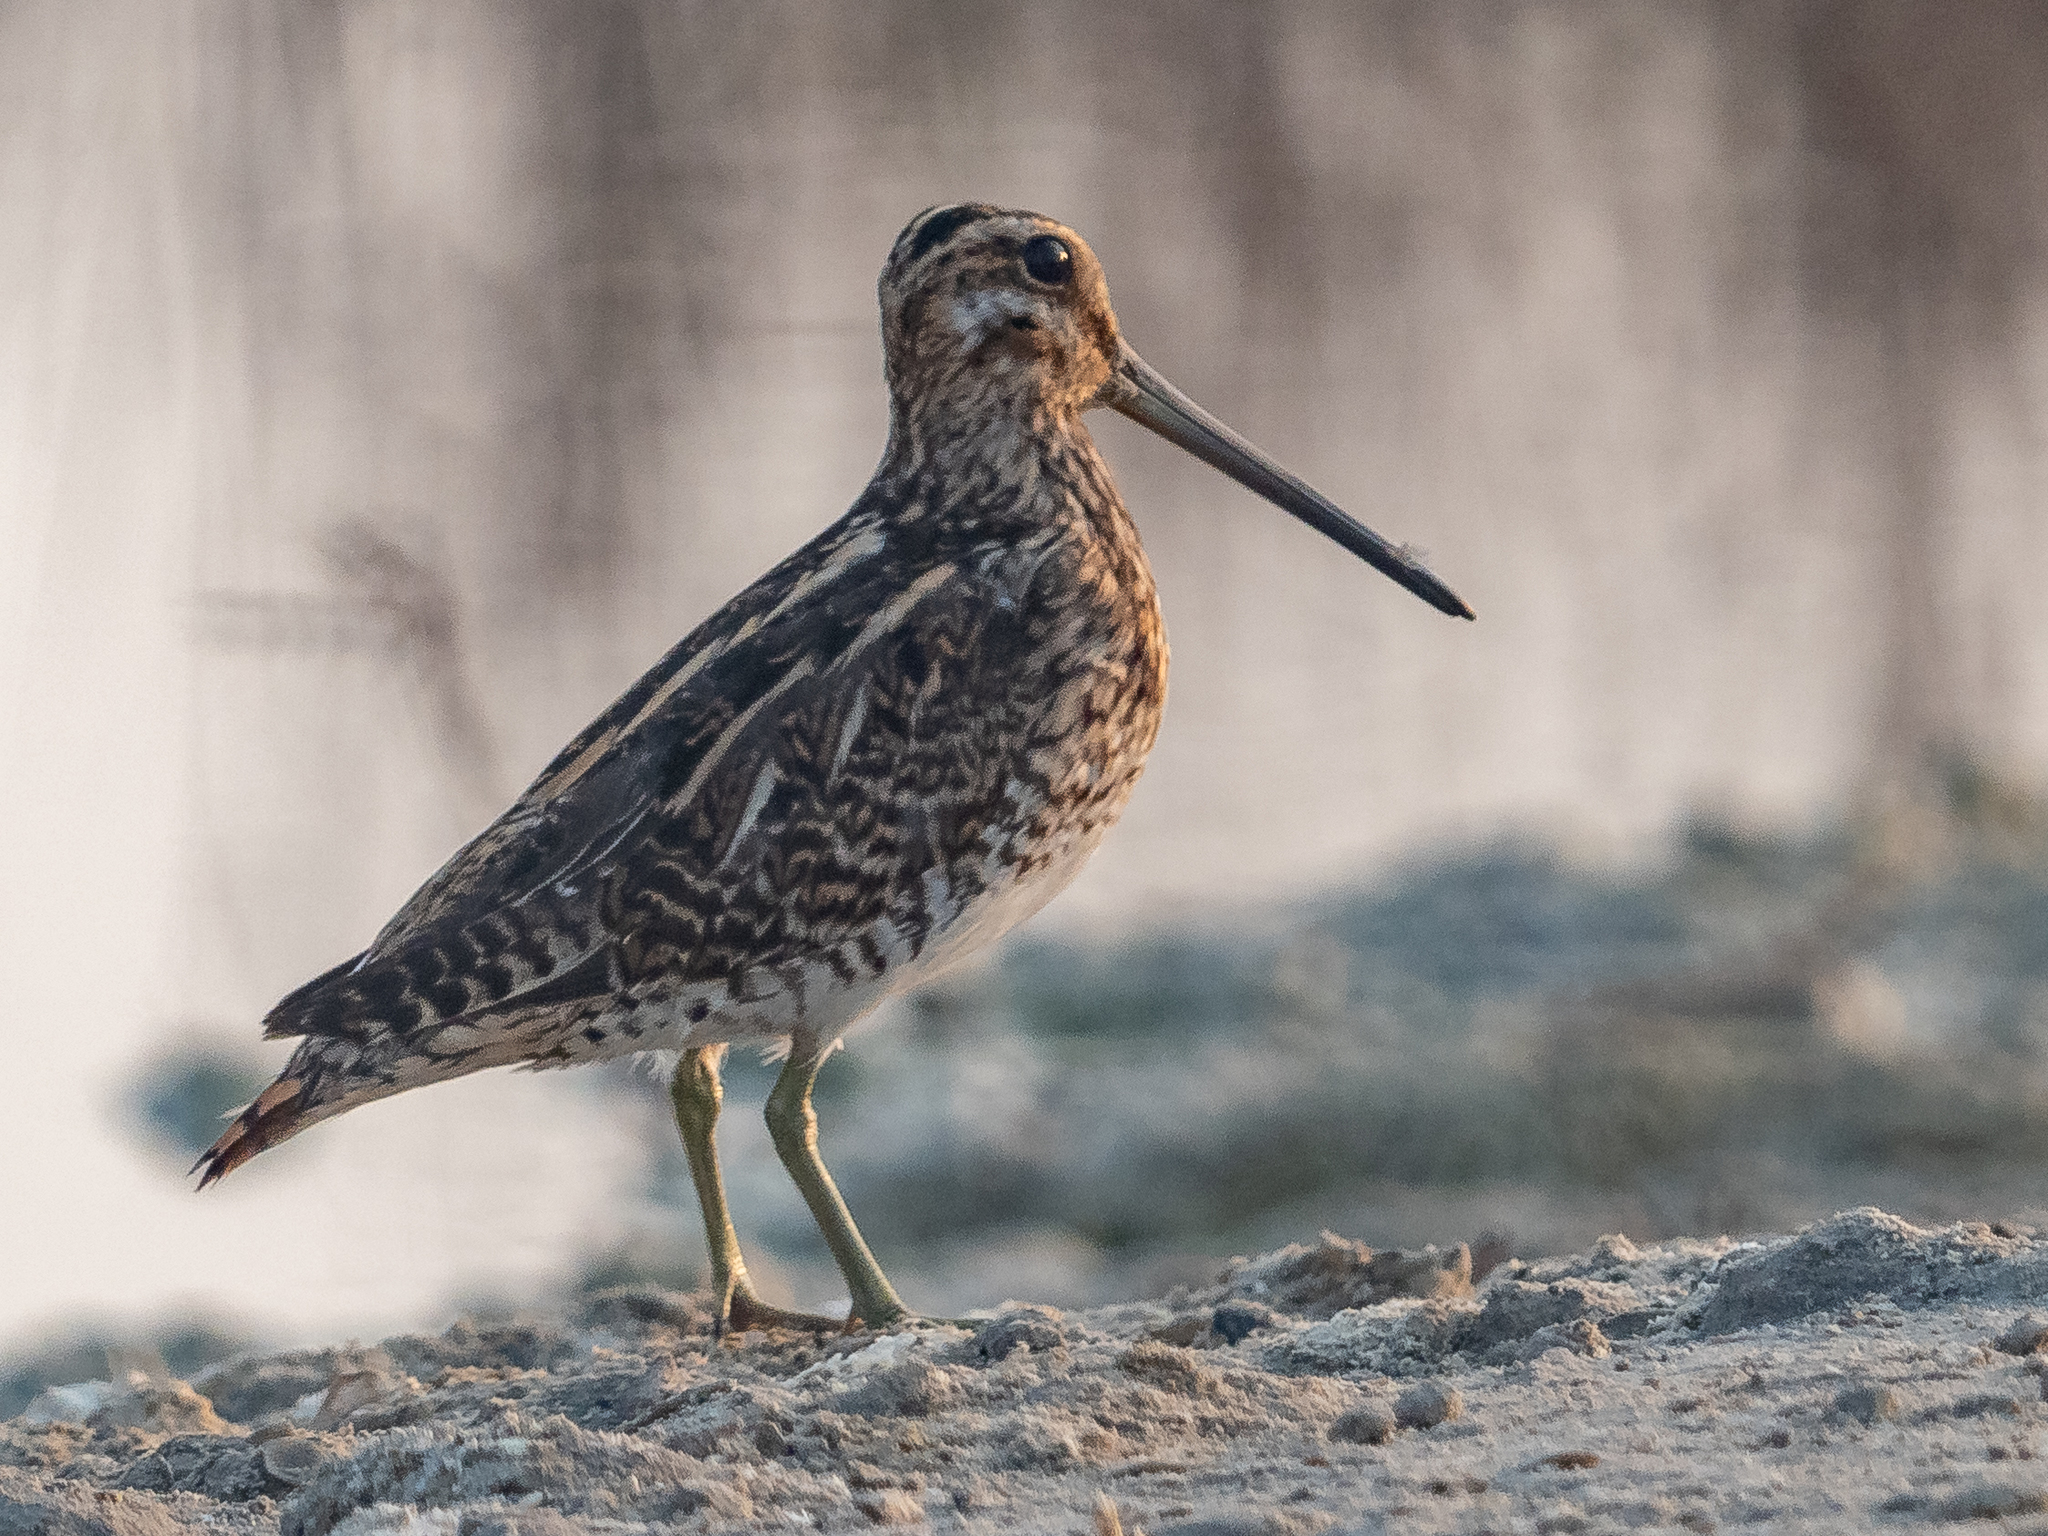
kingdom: Animalia
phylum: Chordata
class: Aves
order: Charadriiformes
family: Scolopacidae
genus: Gallinago
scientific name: Gallinago gallinago
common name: Common snipe
